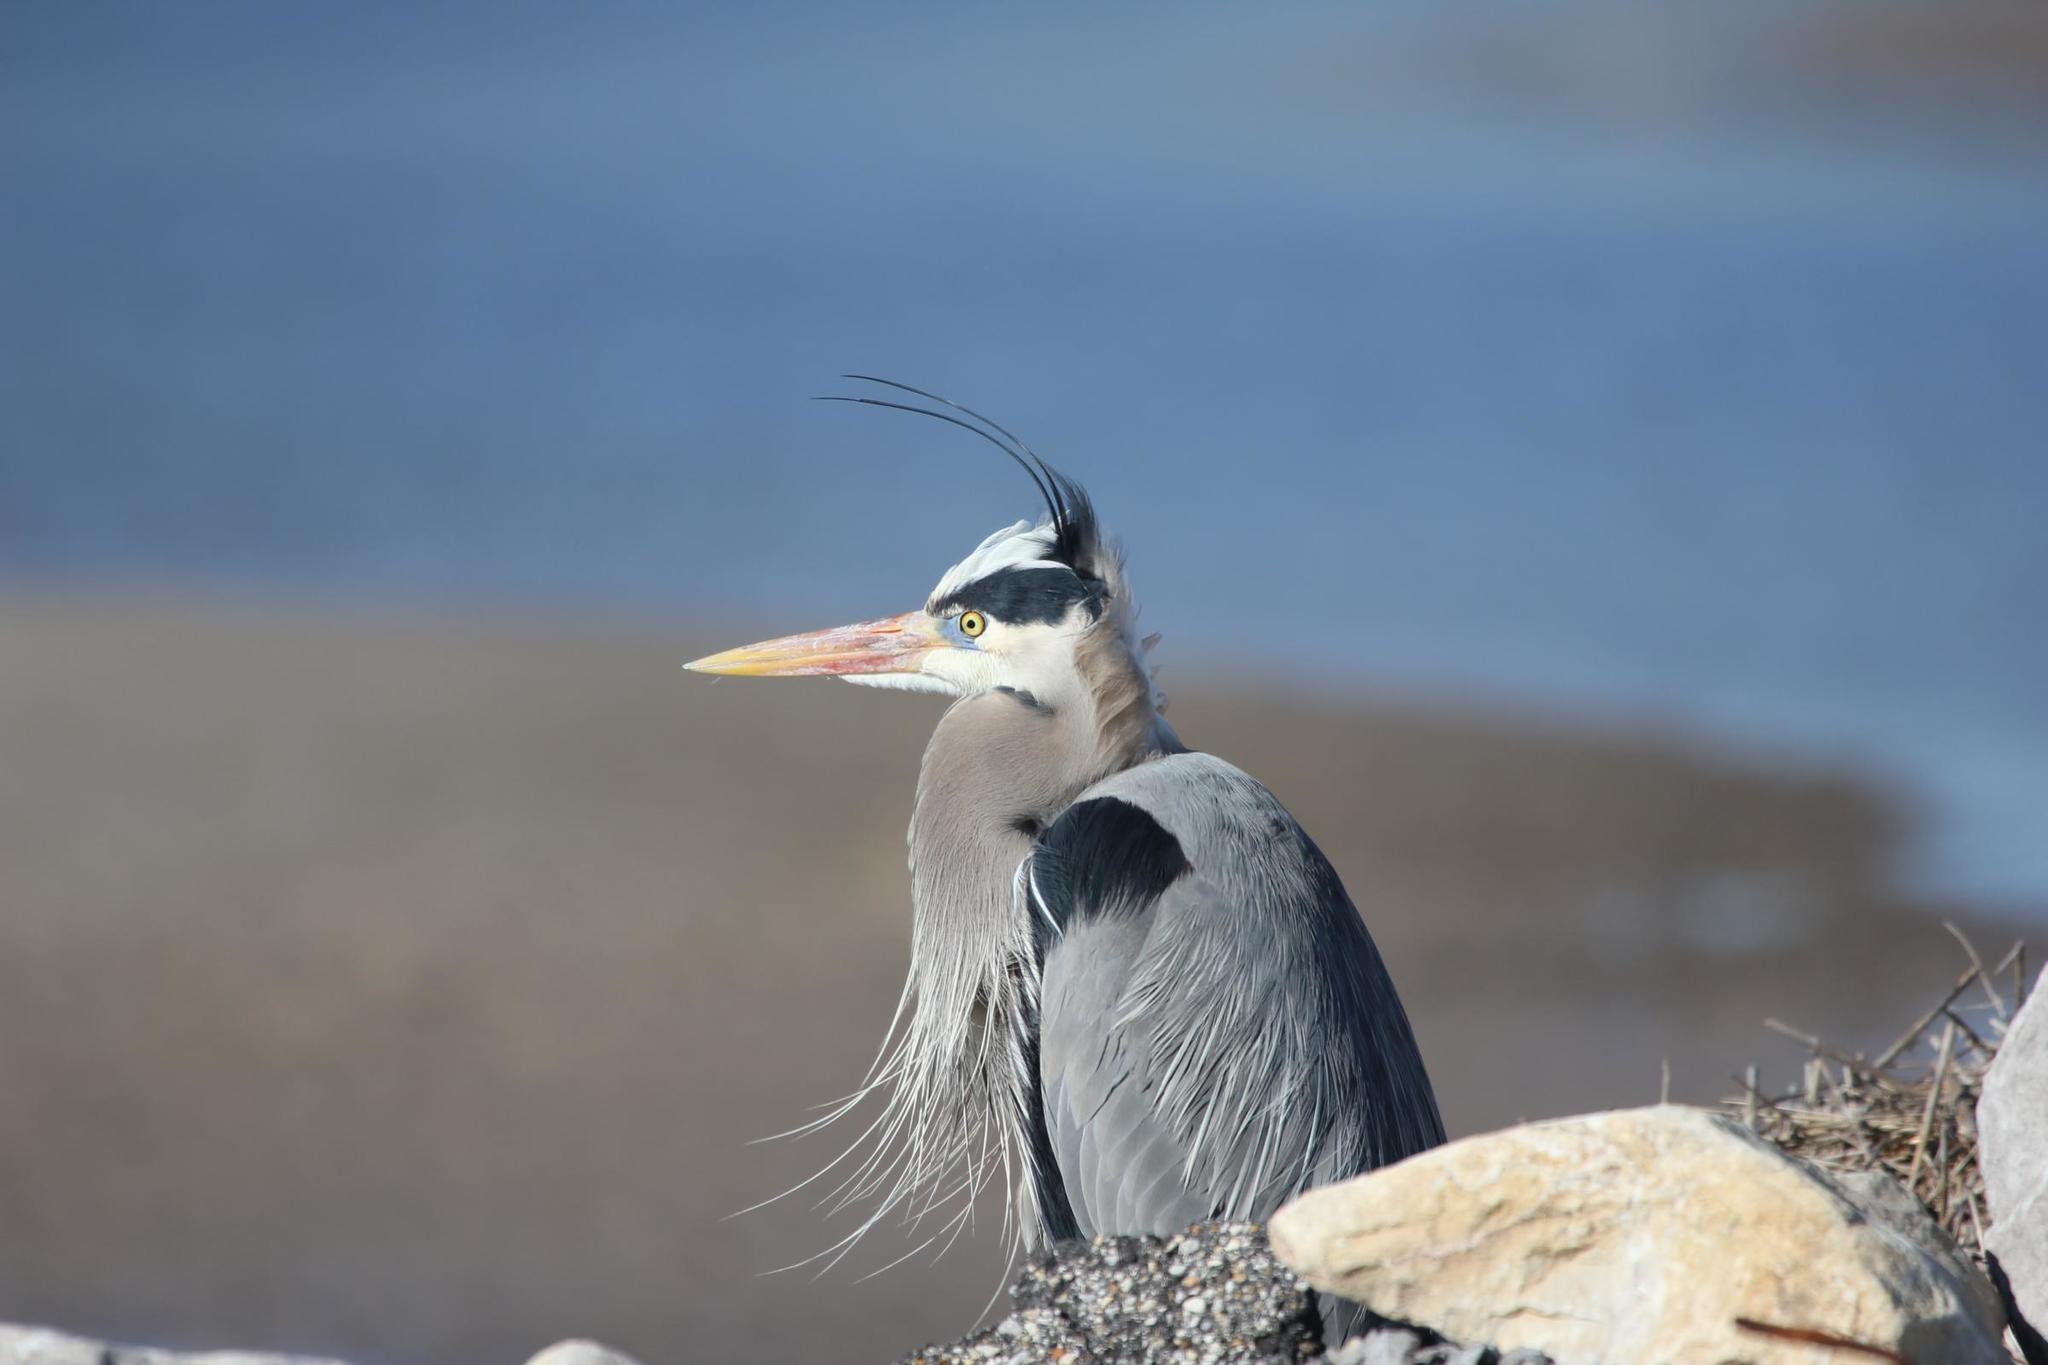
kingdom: Animalia
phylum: Chordata
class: Aves
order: Pelecaniformes
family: Ardeidae
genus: Ardea
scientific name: Ardea herodias
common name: Great blue heron
